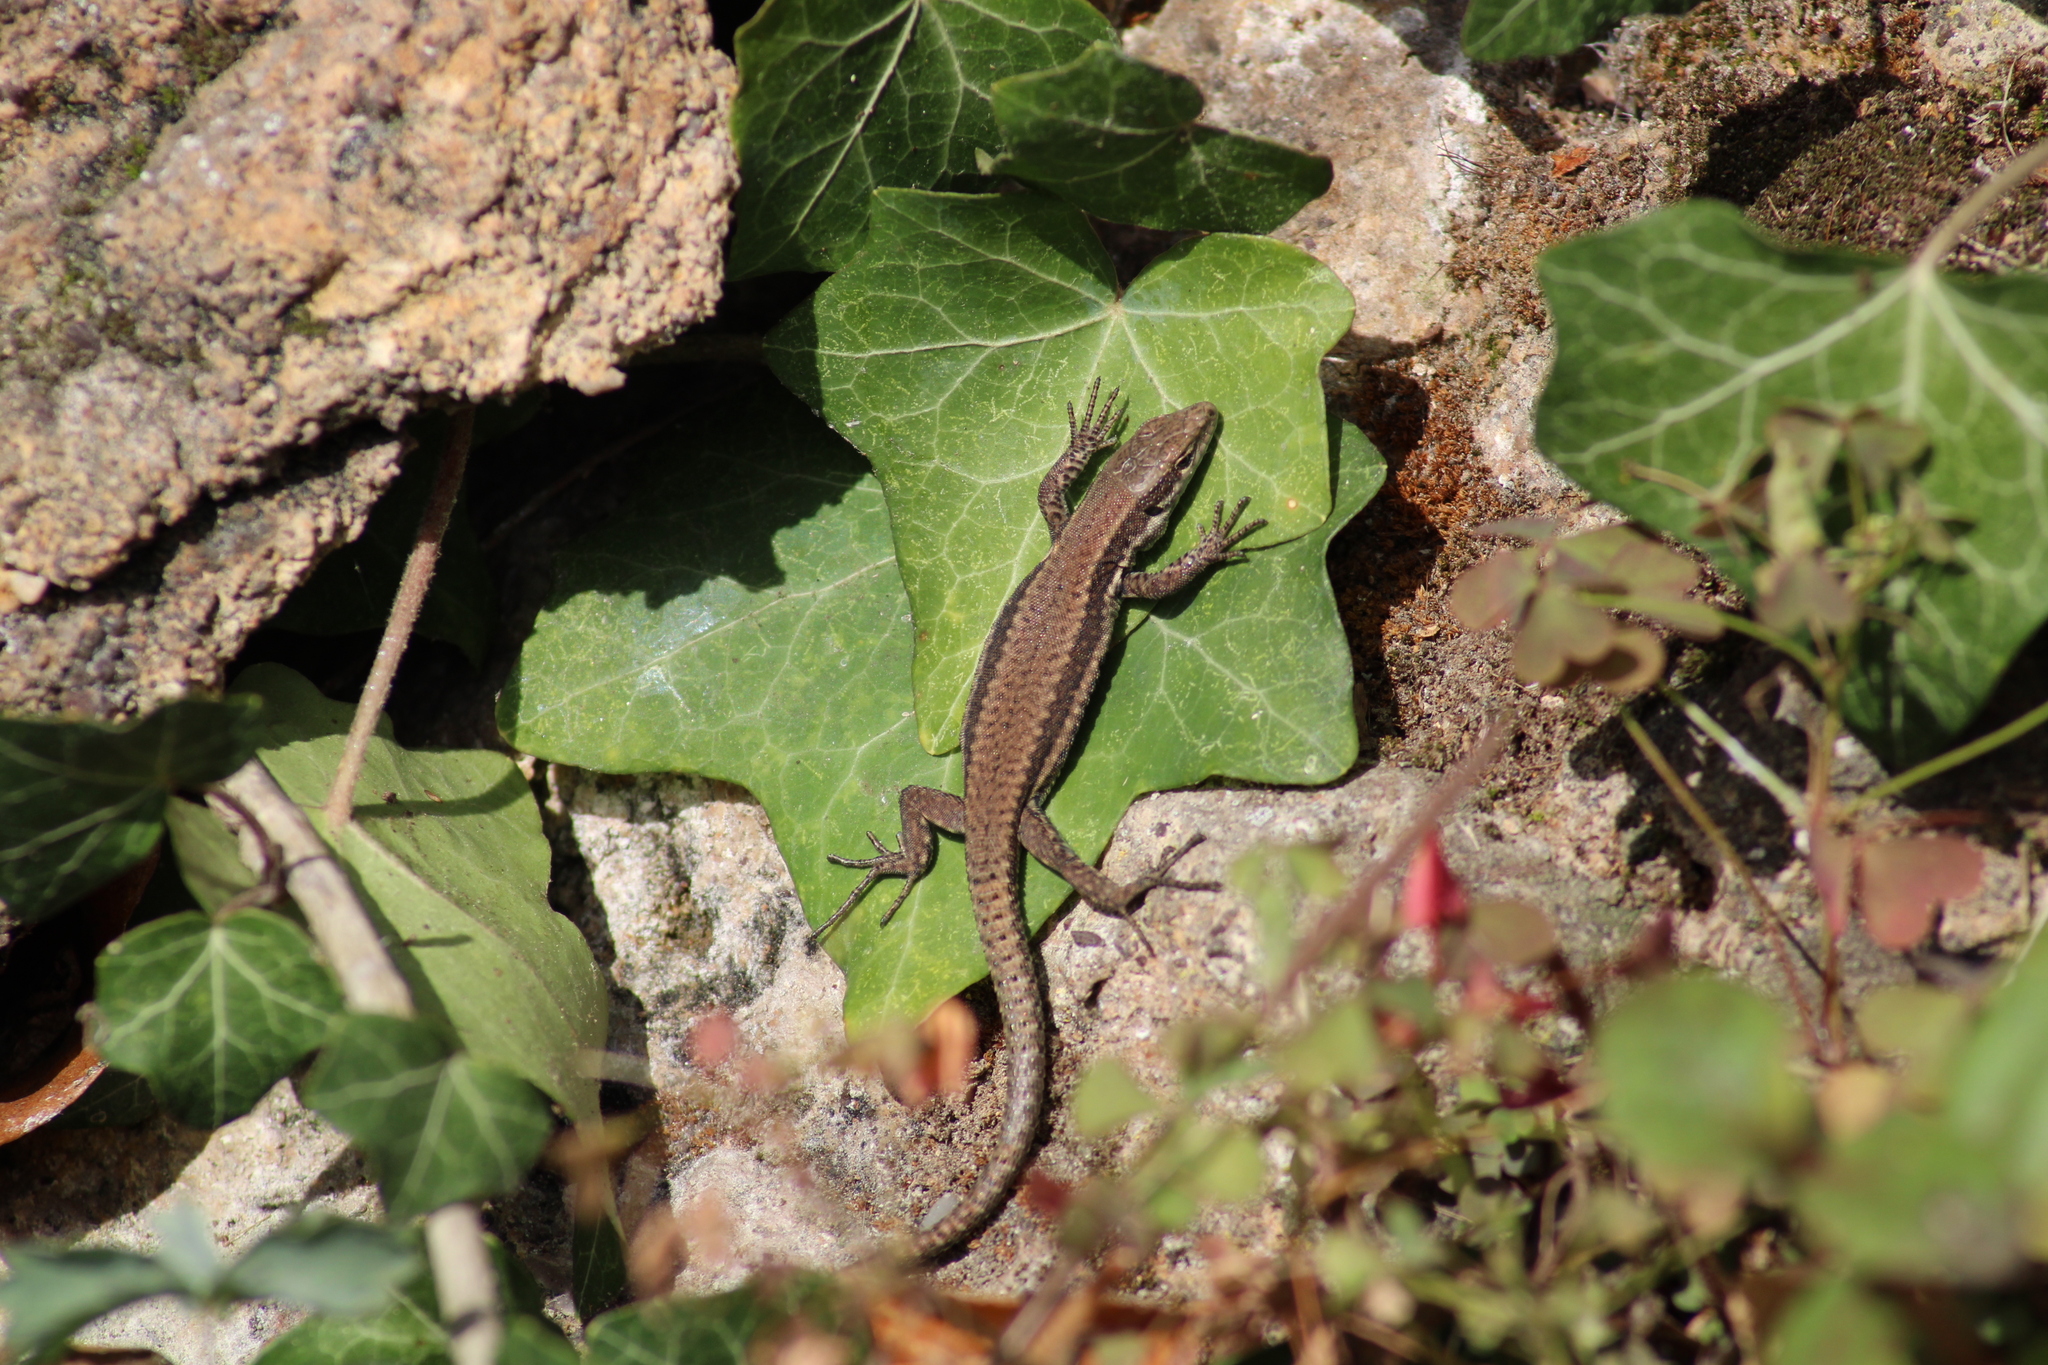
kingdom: Animalia
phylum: Chordata
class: Squamata
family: Lacertidae
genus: Podarcis
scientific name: Podarcis muralis
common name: Common wall lizard
